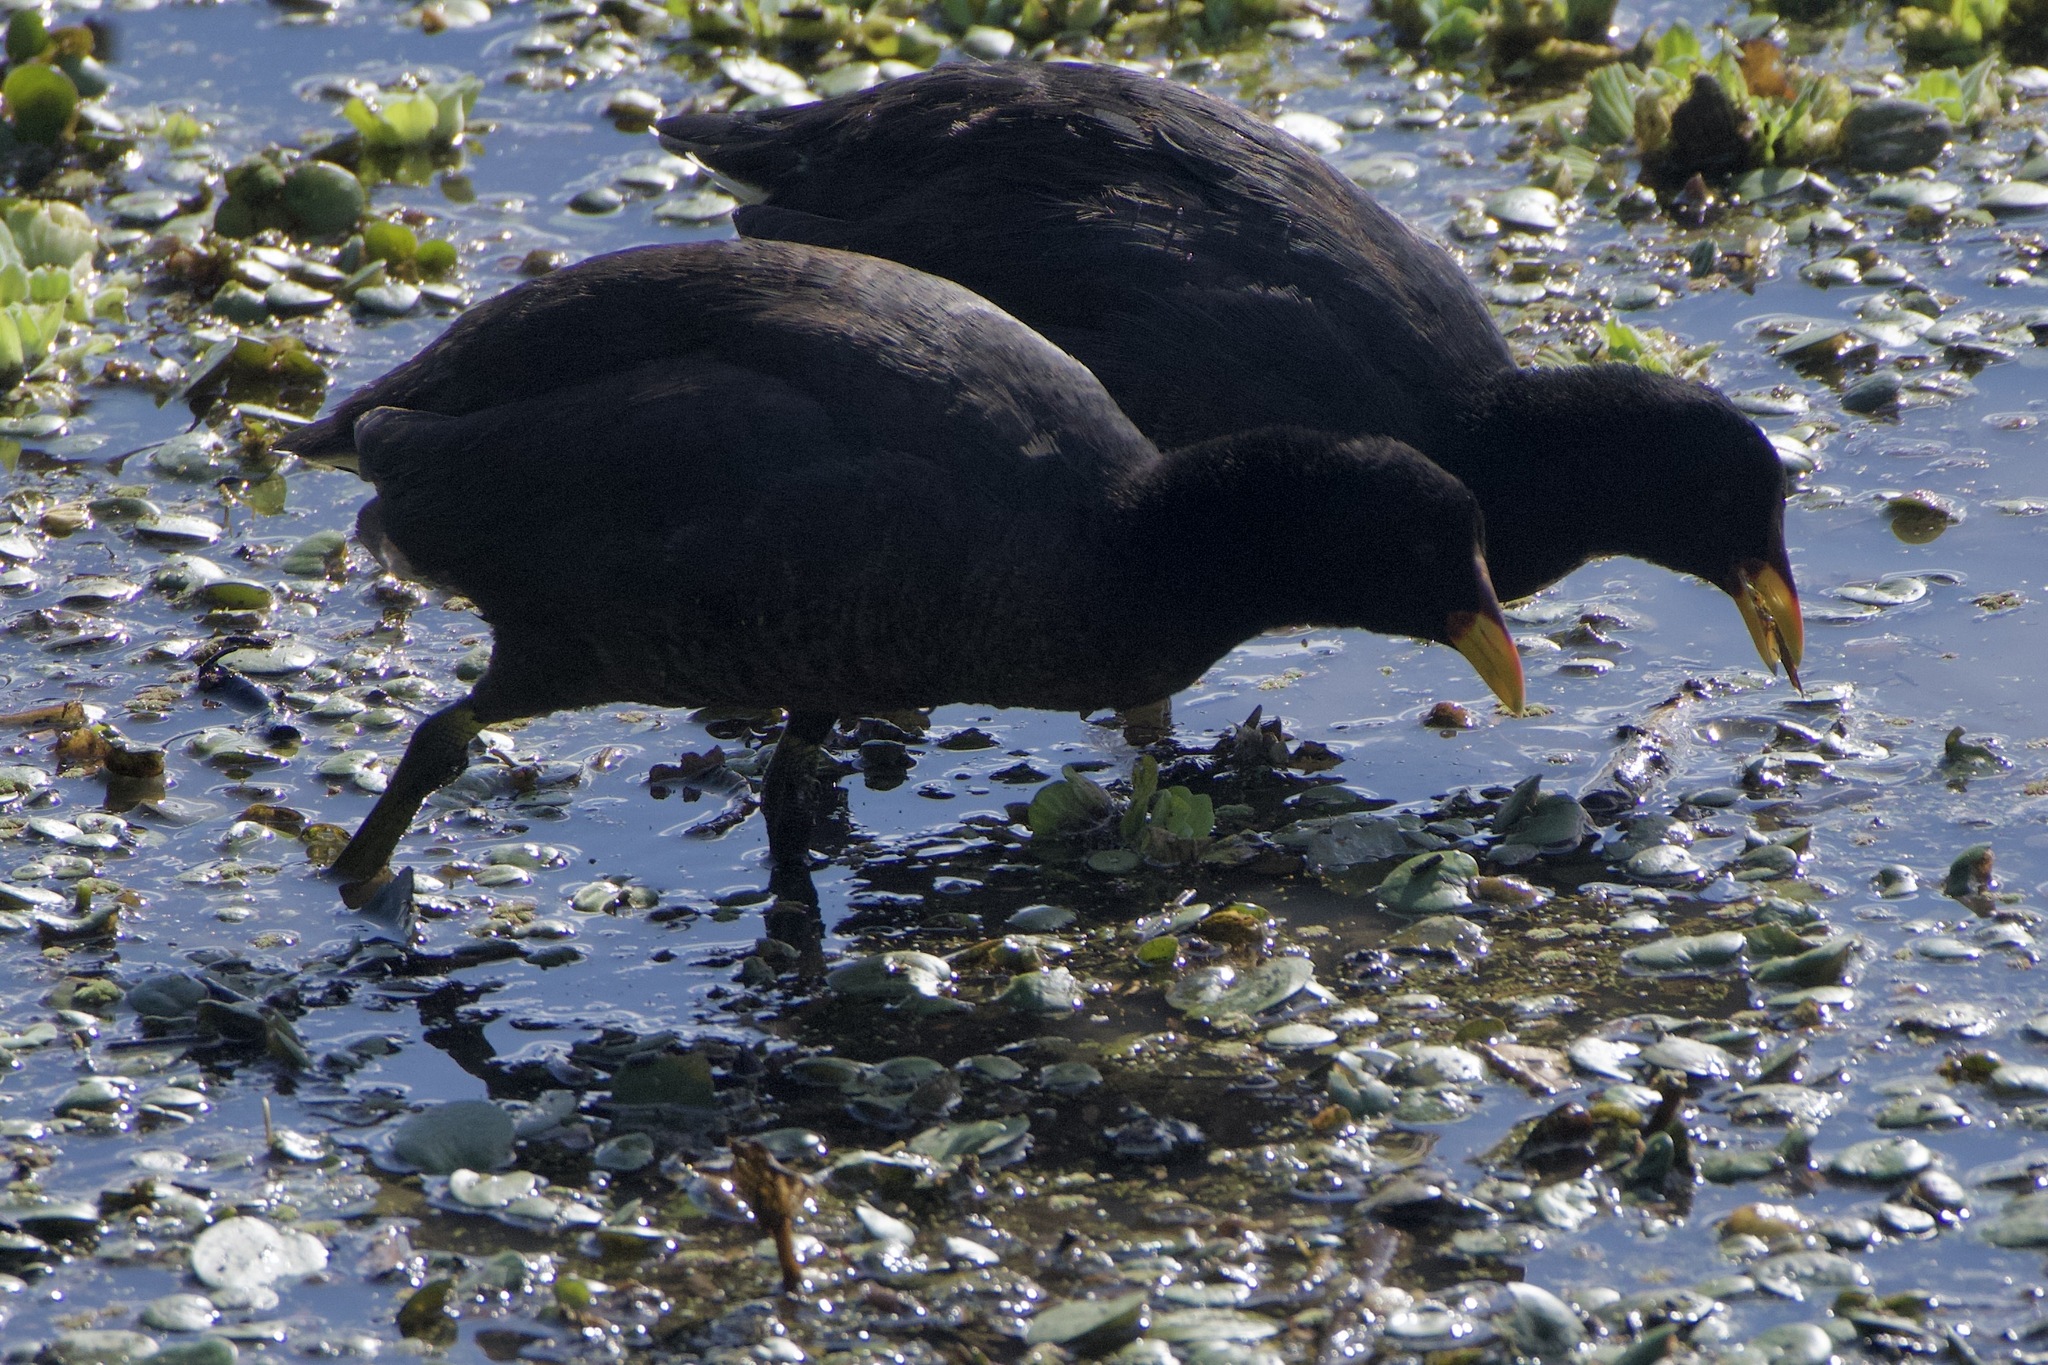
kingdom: Animalia
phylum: Chordata
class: Aves
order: Gruiformes
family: Rallidae
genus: Fulica
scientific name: Fulica rufifrons
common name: Red-fronted coot
